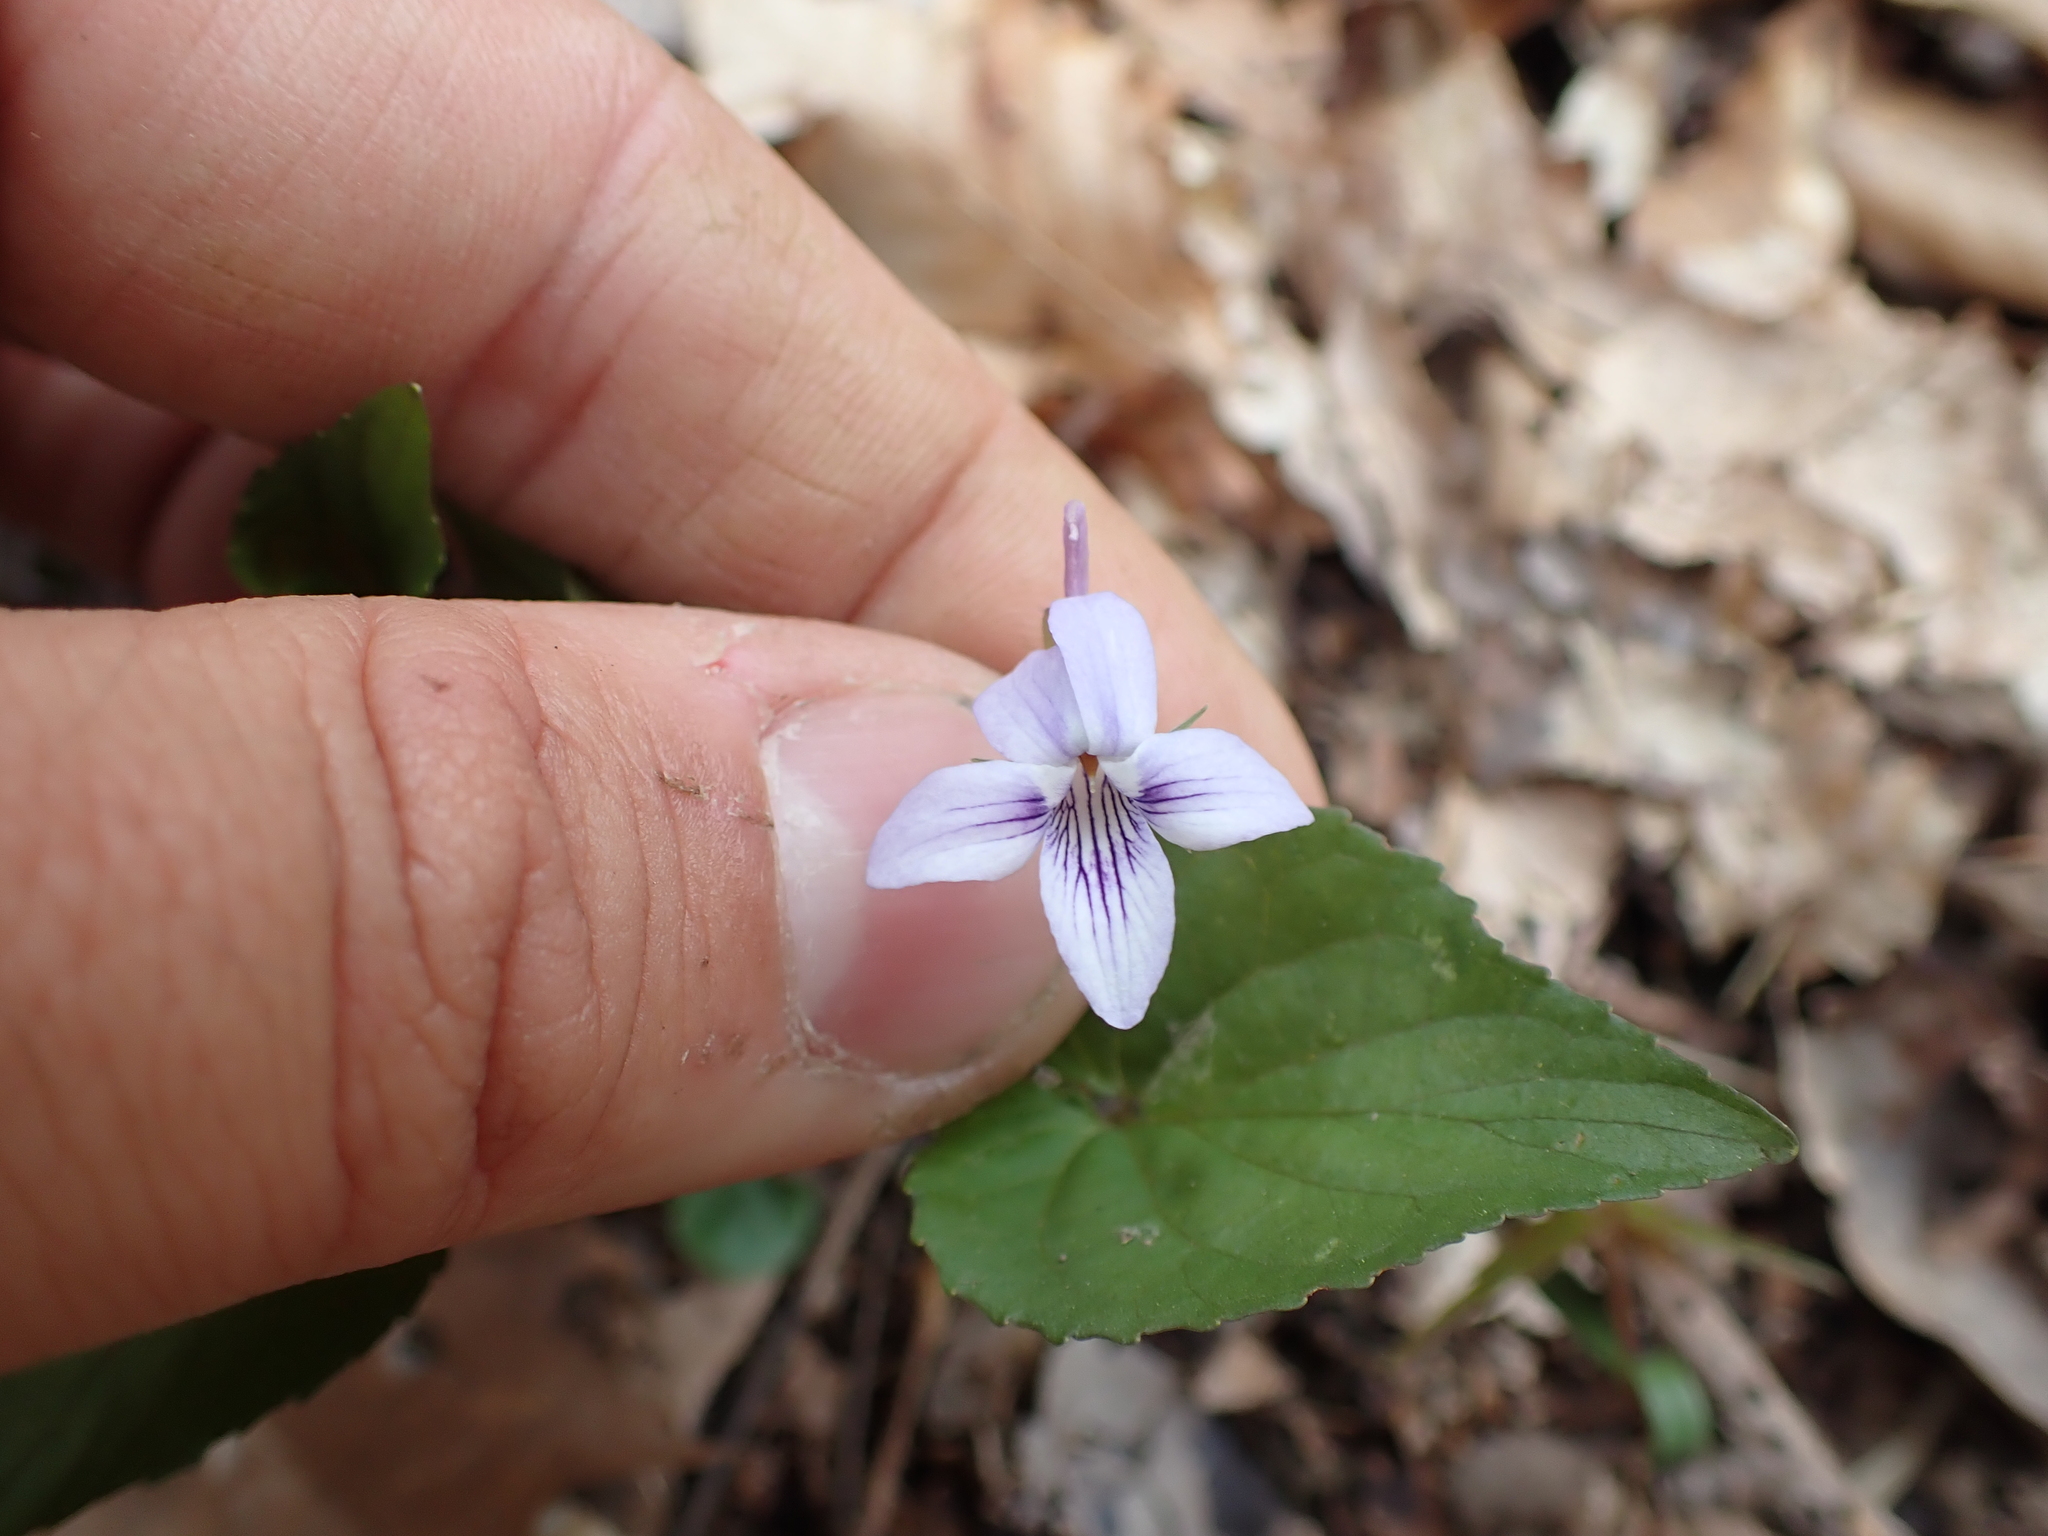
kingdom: Plantae
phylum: Tracheophyta
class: Magnoliopsida
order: Malpighiales
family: Violaceae
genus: Viola
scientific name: Viola rostrata
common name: Long-spur violet
